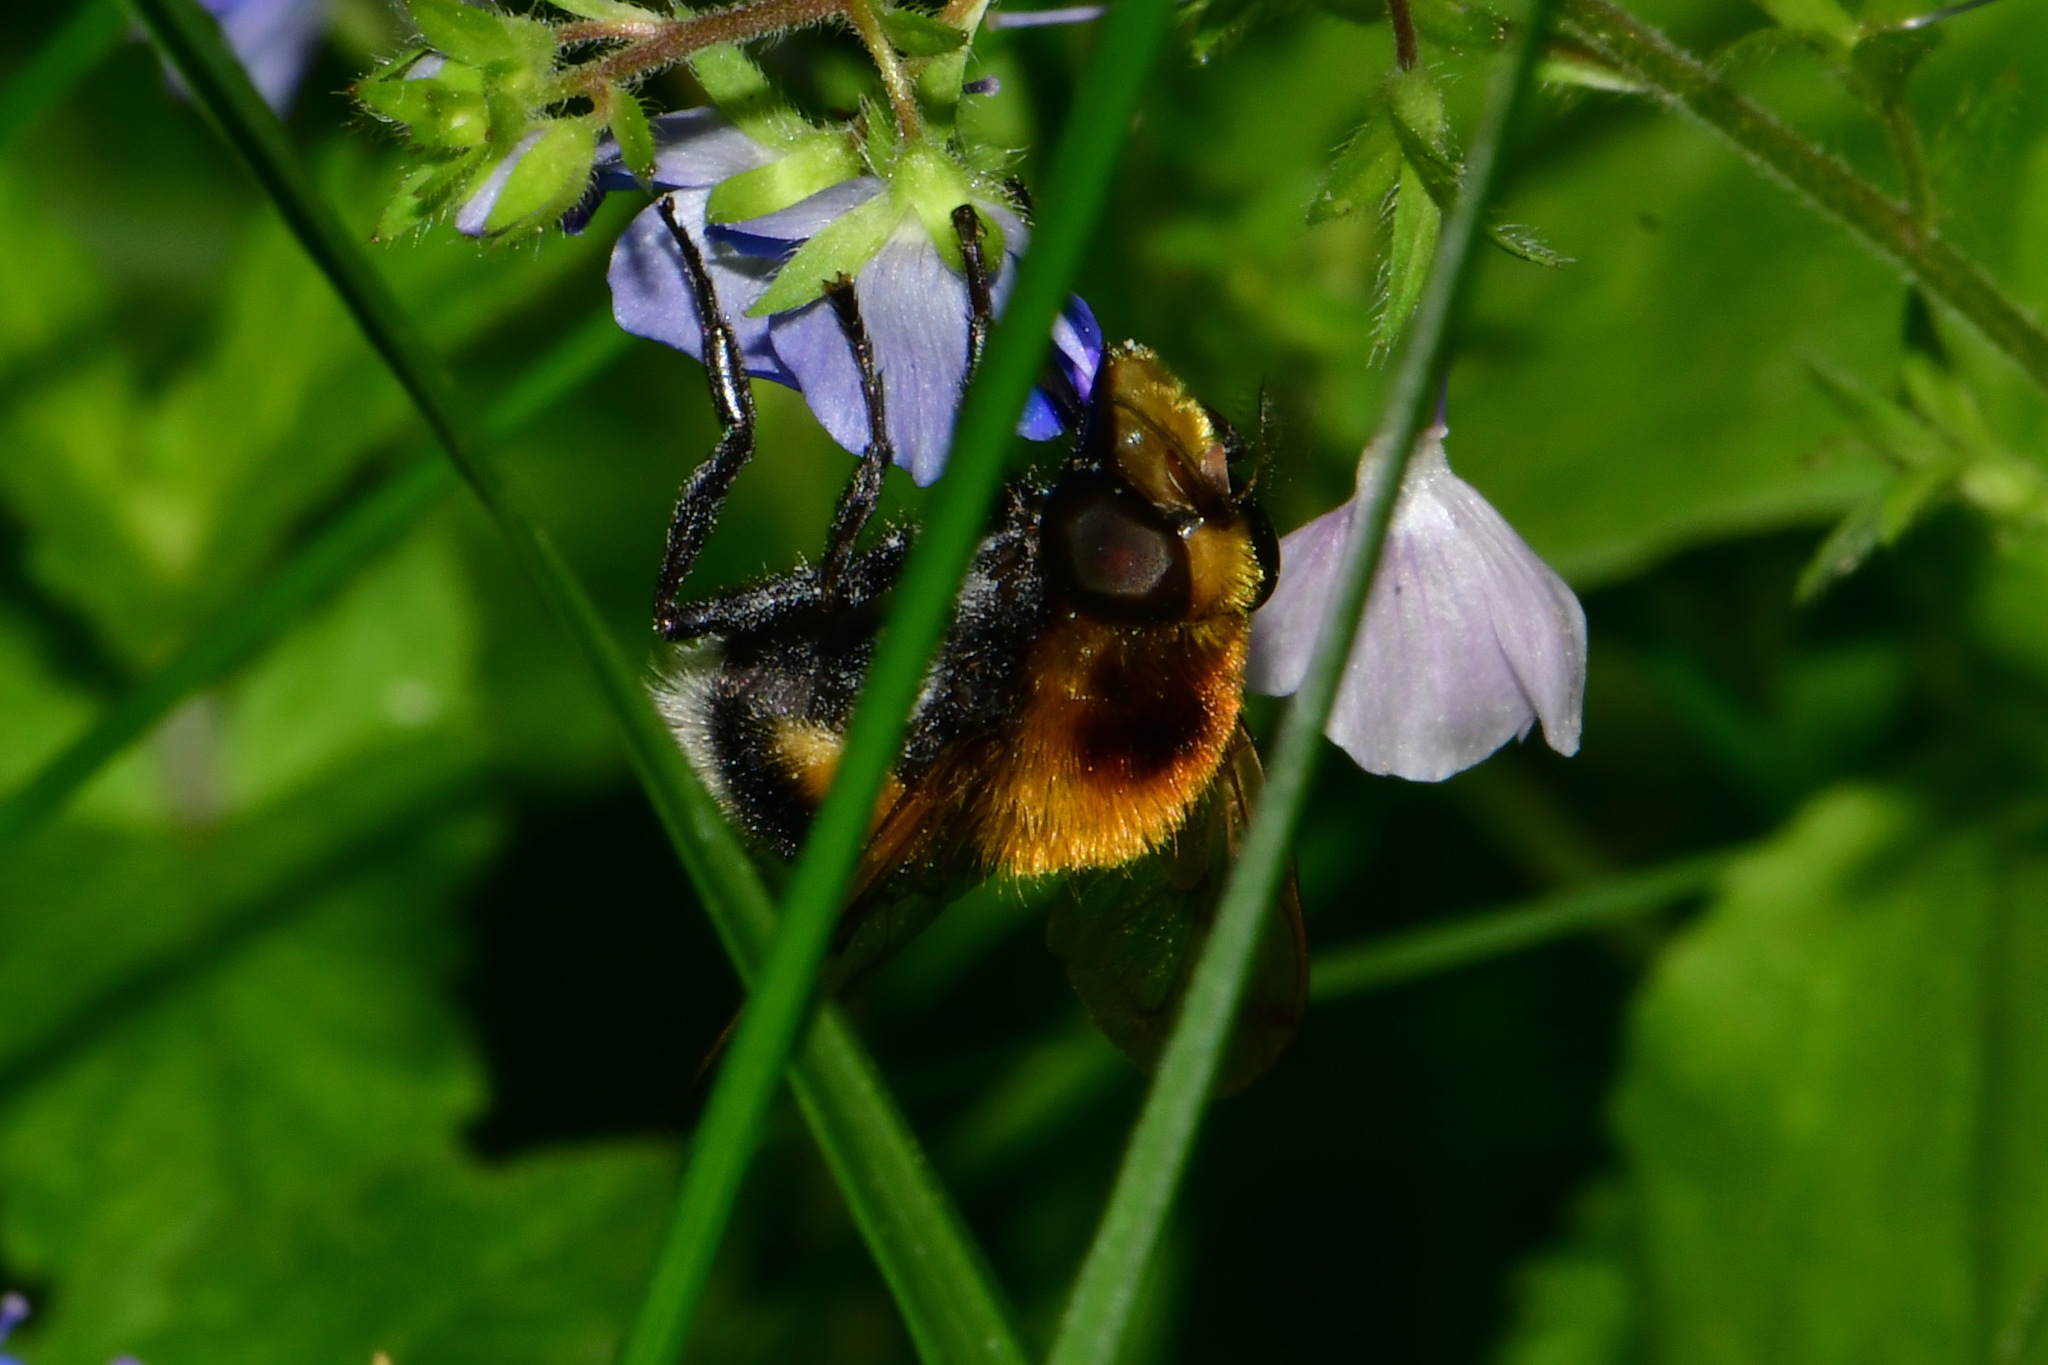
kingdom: Animalia
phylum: Arthropoda
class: Insecta
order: Diptera
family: Syrphidae
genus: Volucella
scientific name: Volucella bombylans
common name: Bumble bee hover fly
